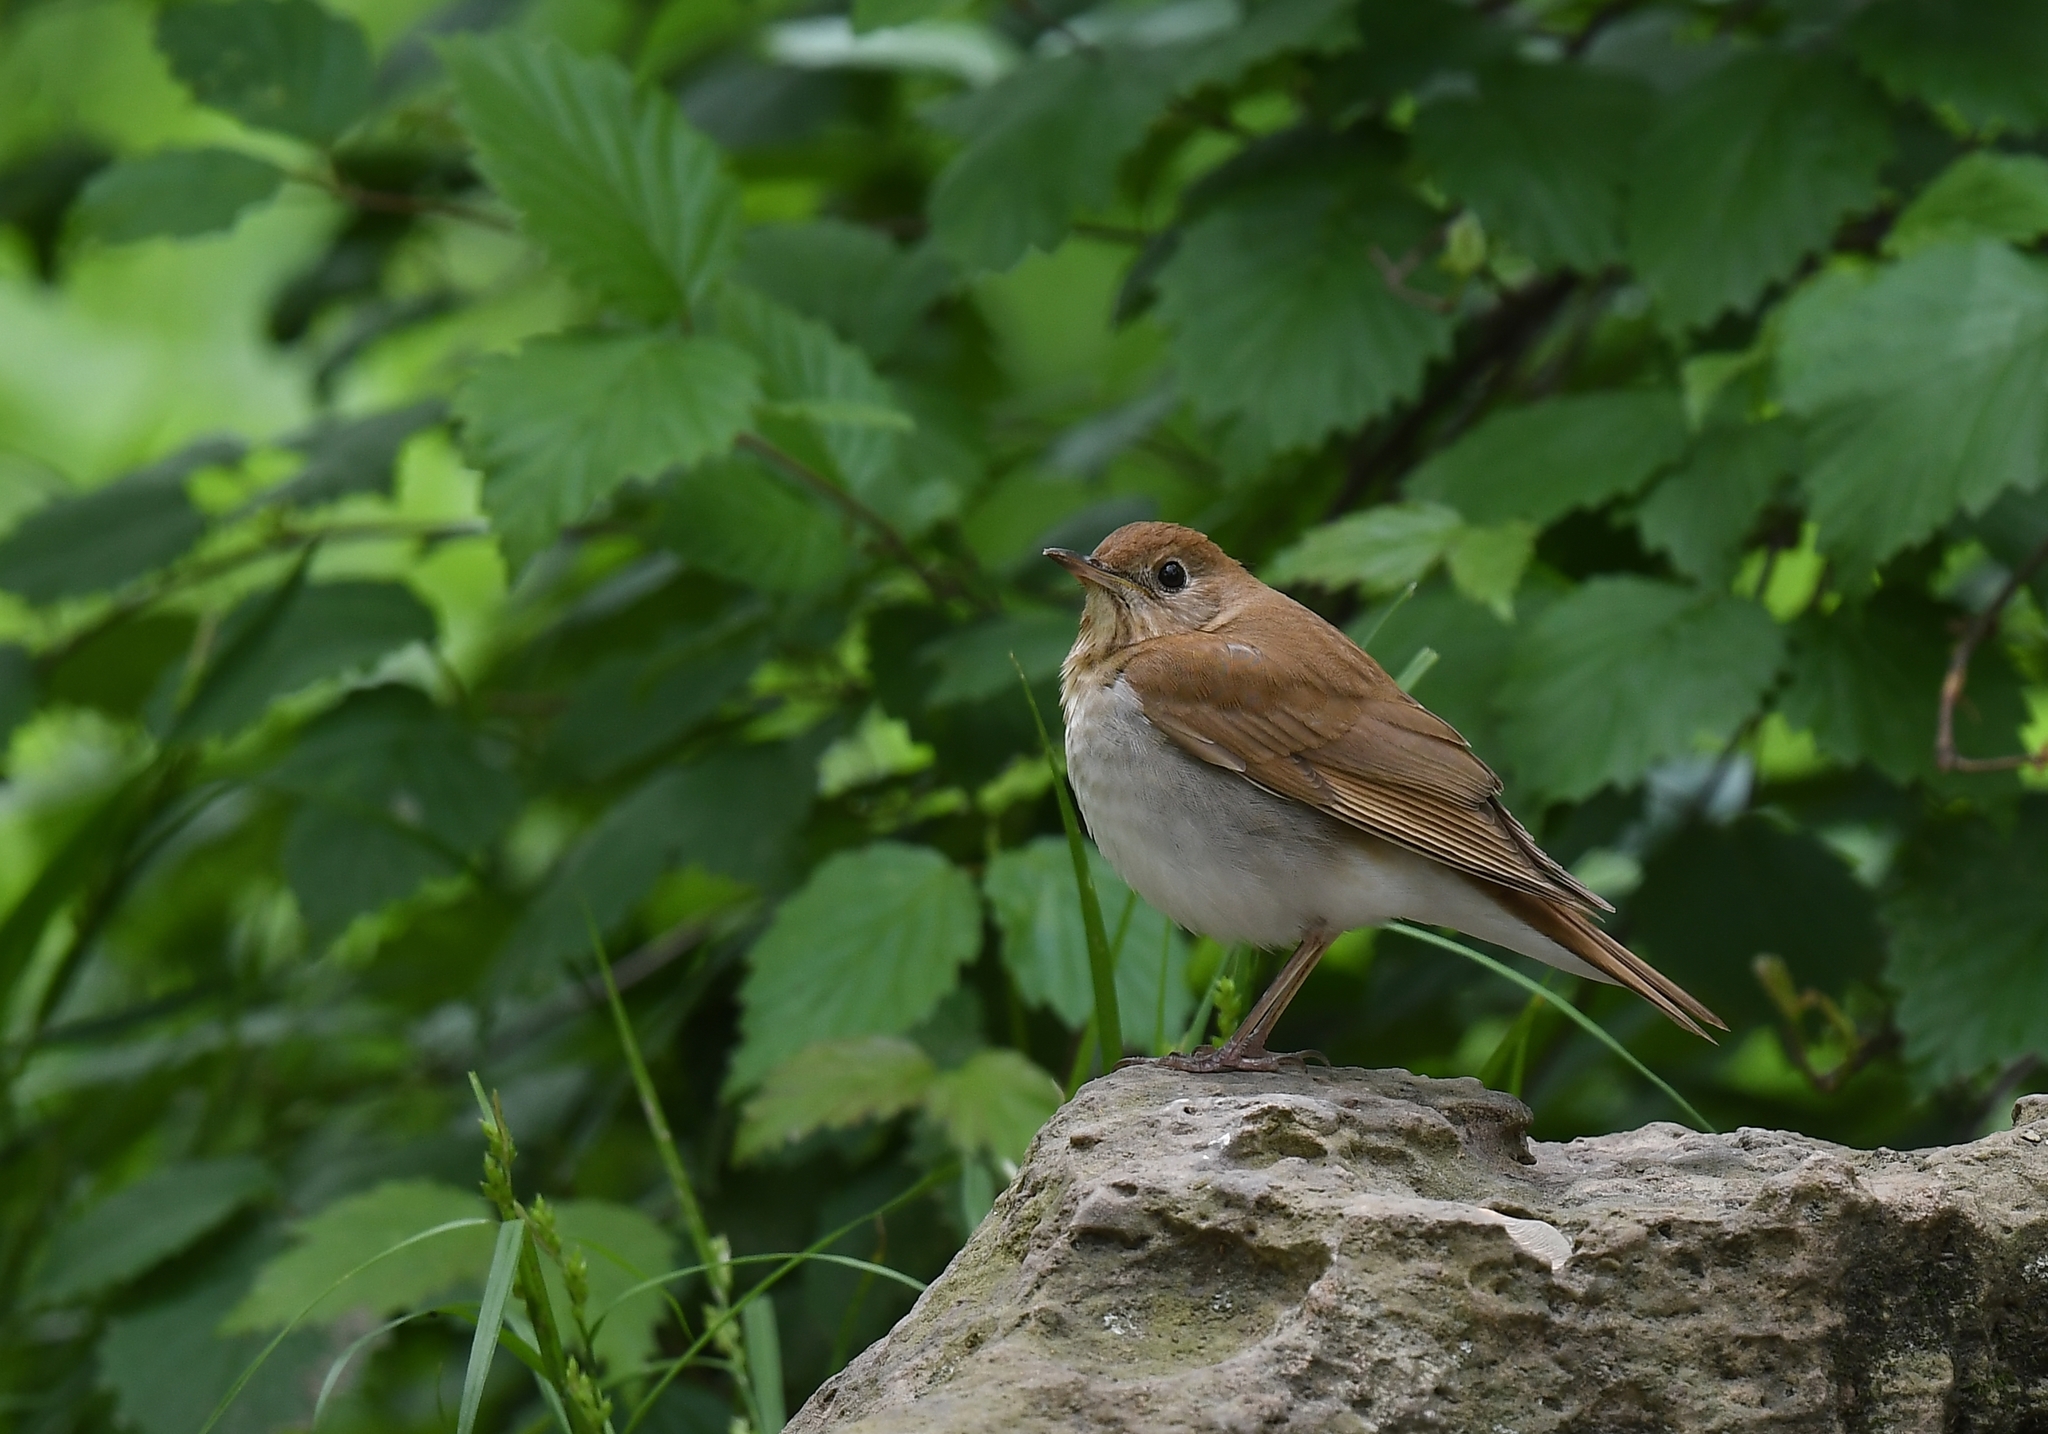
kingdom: Animalia
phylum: Chordata
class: Aves
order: Passeriformes
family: Turdidae
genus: Catharus
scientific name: Catharus fuscescens
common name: Veery
